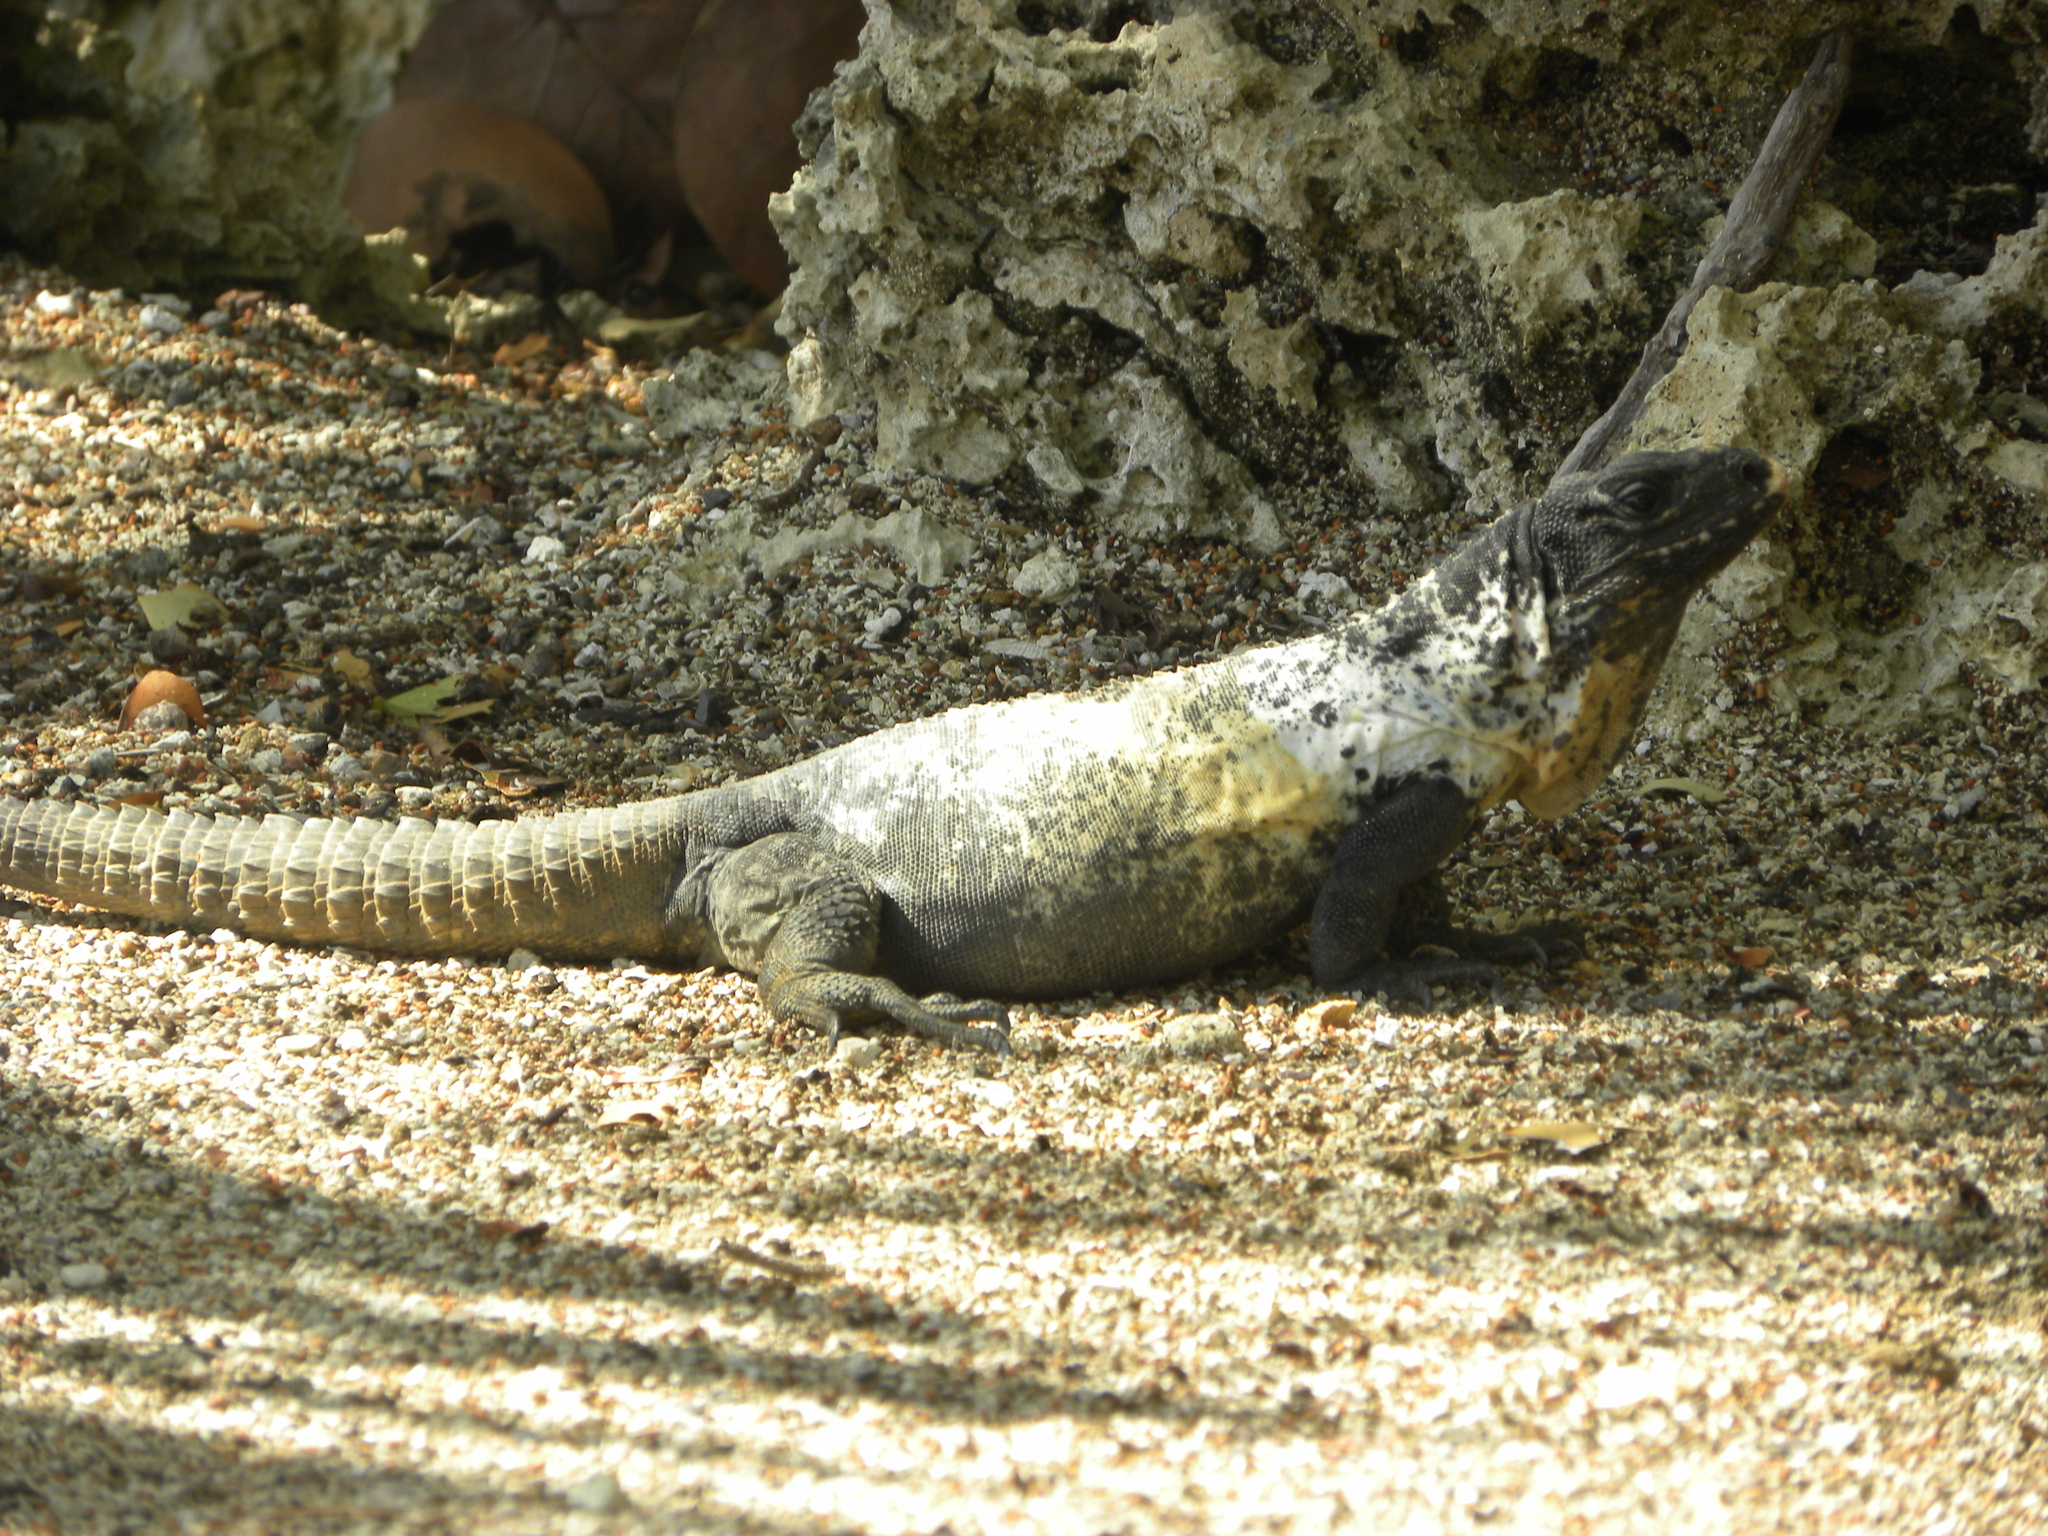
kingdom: Animalia
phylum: Chordata
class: Squamata
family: Iguanidae
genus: Ctenosaura
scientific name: Ctenosaura oedirhina
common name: Roatan spiny-tailed iguana
